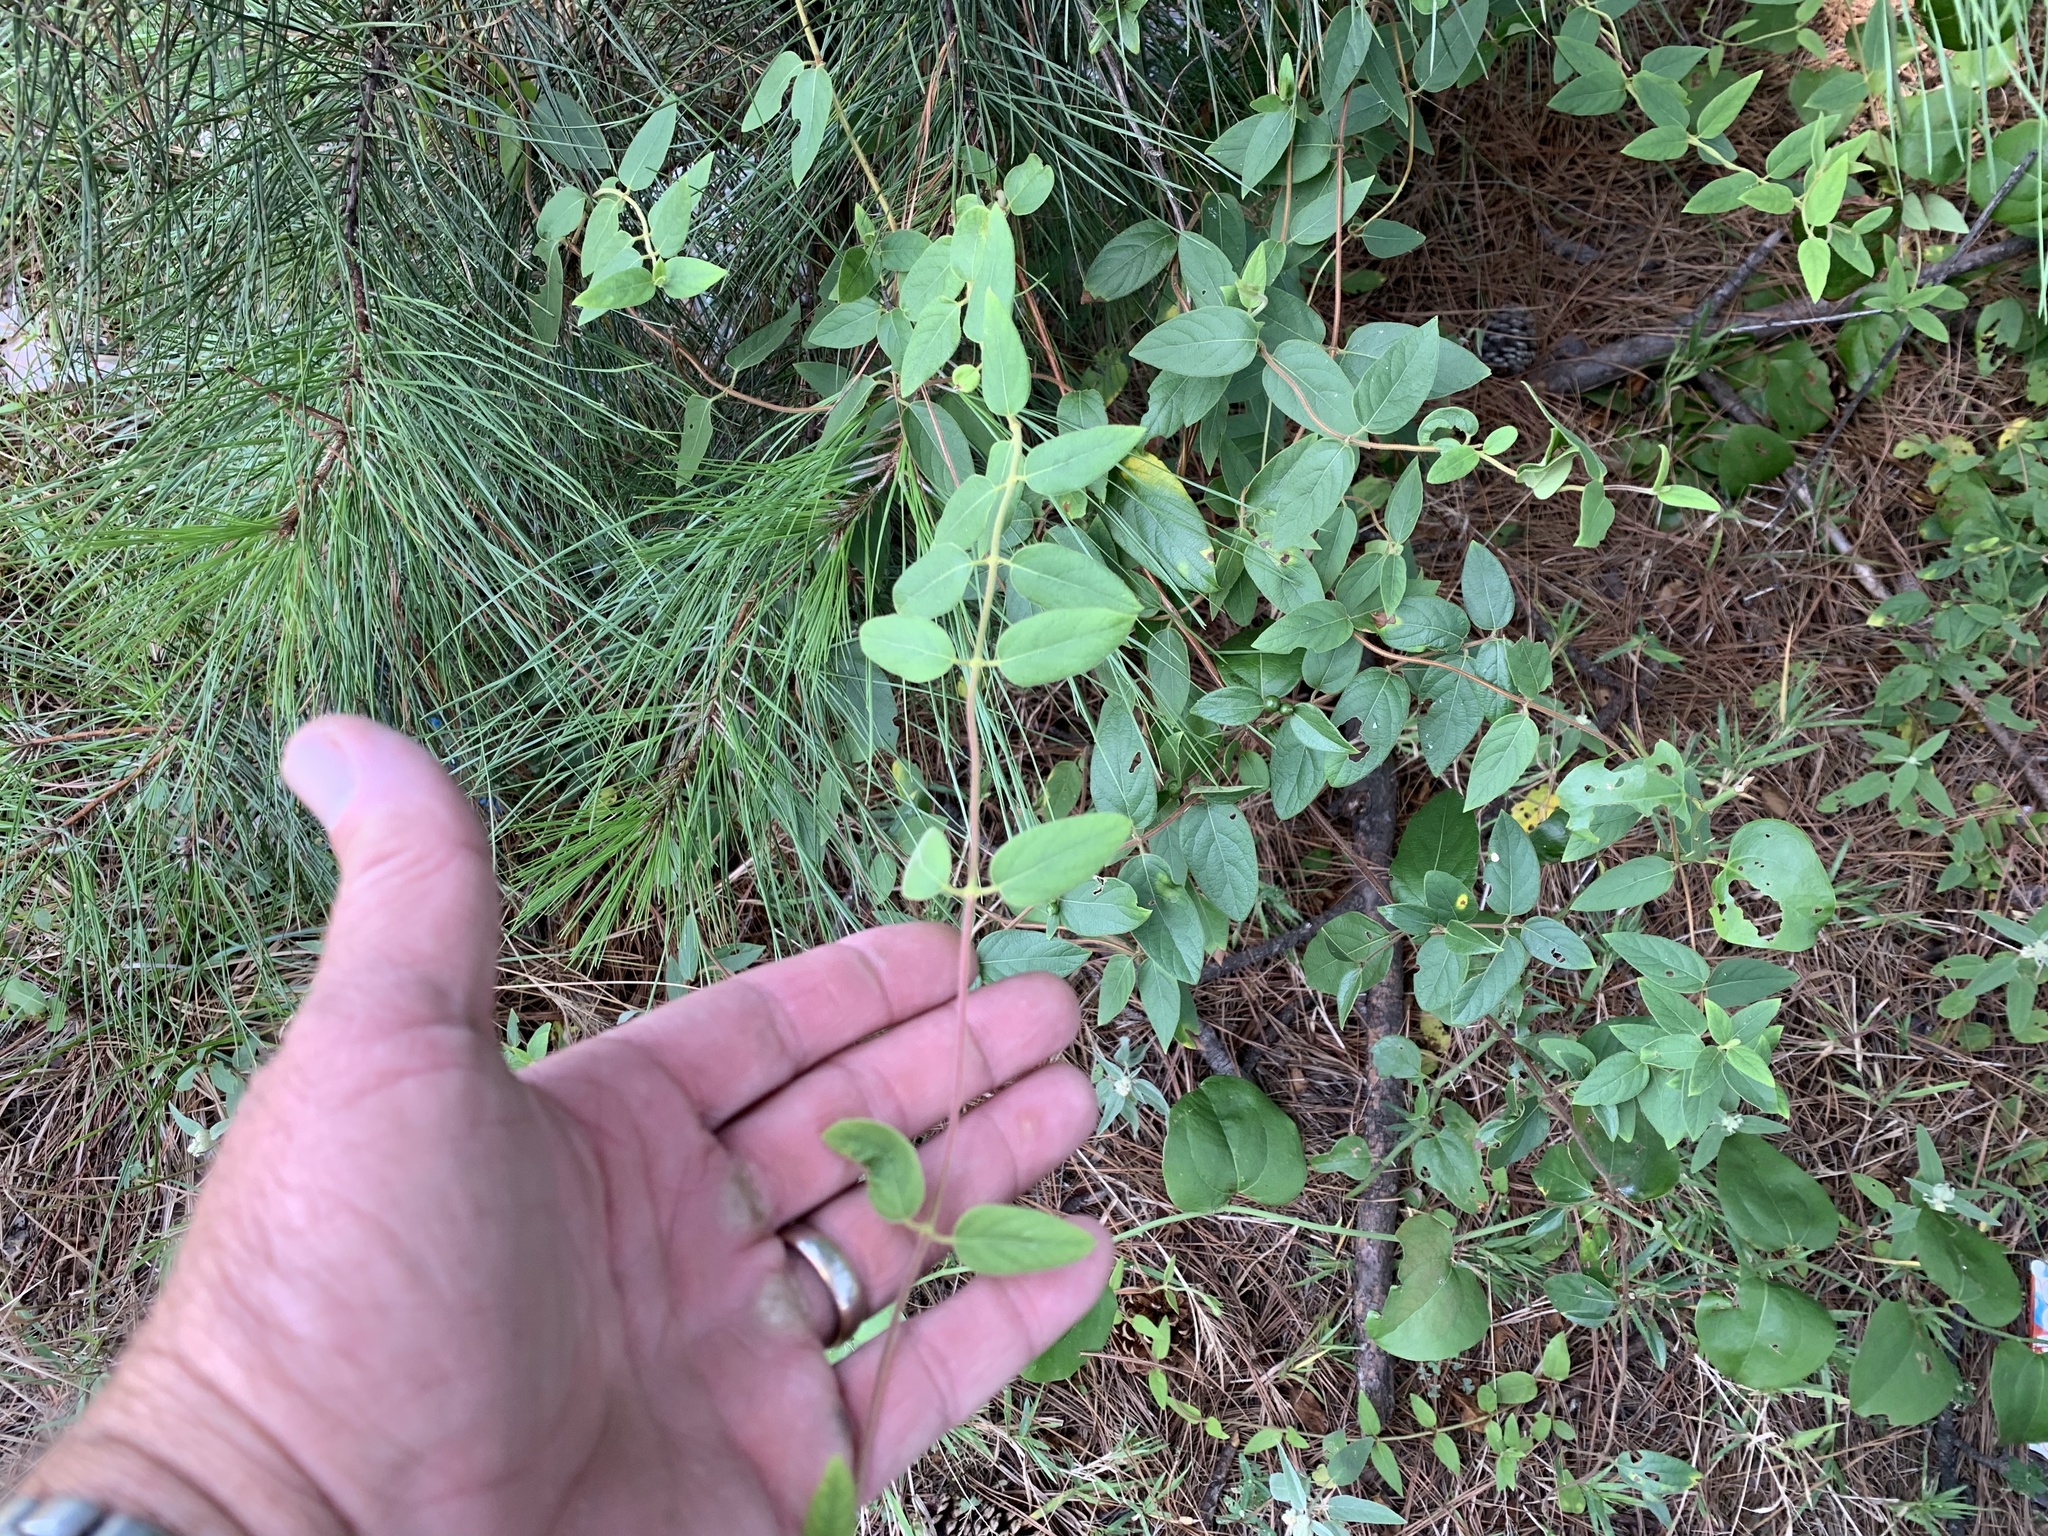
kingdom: Plantae
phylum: Tracheophyta
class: Magnoliopsida
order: Dipsacales
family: Caprifoliaceae
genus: Lonicera
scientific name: Lonicera japonica
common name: Japanese honeysuckle
